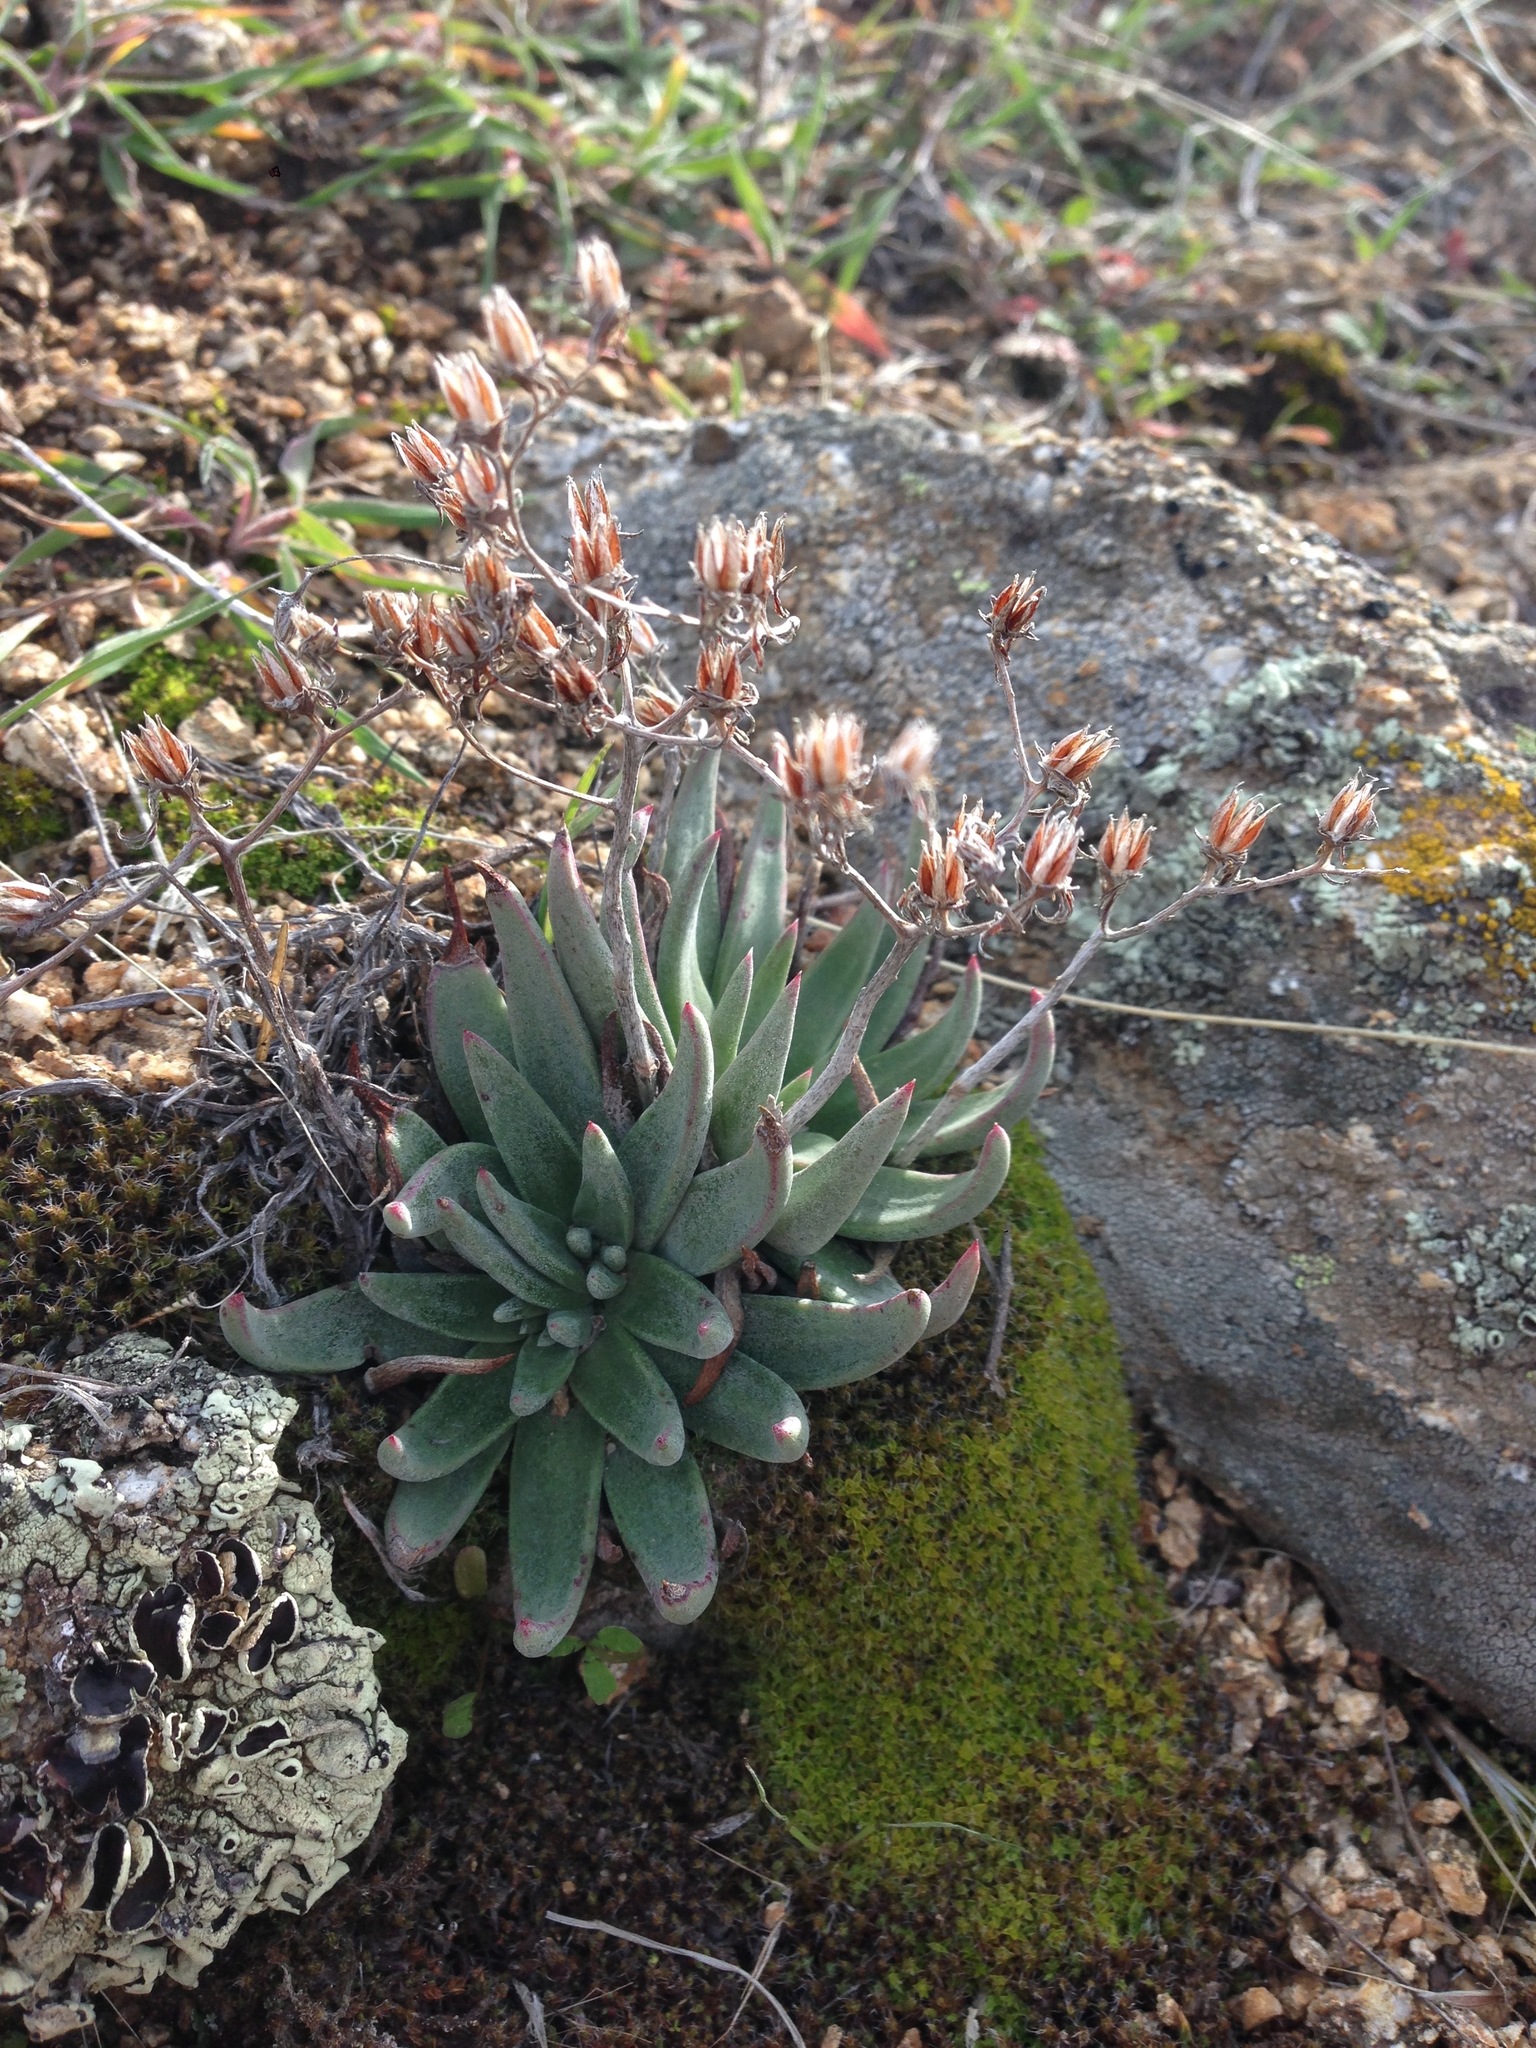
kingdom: Plantae
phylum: Tracheophyta
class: Magnoliopsida
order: Saxifragales
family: Crassulaceae
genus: Dudleya
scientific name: Dudleya abramsii
